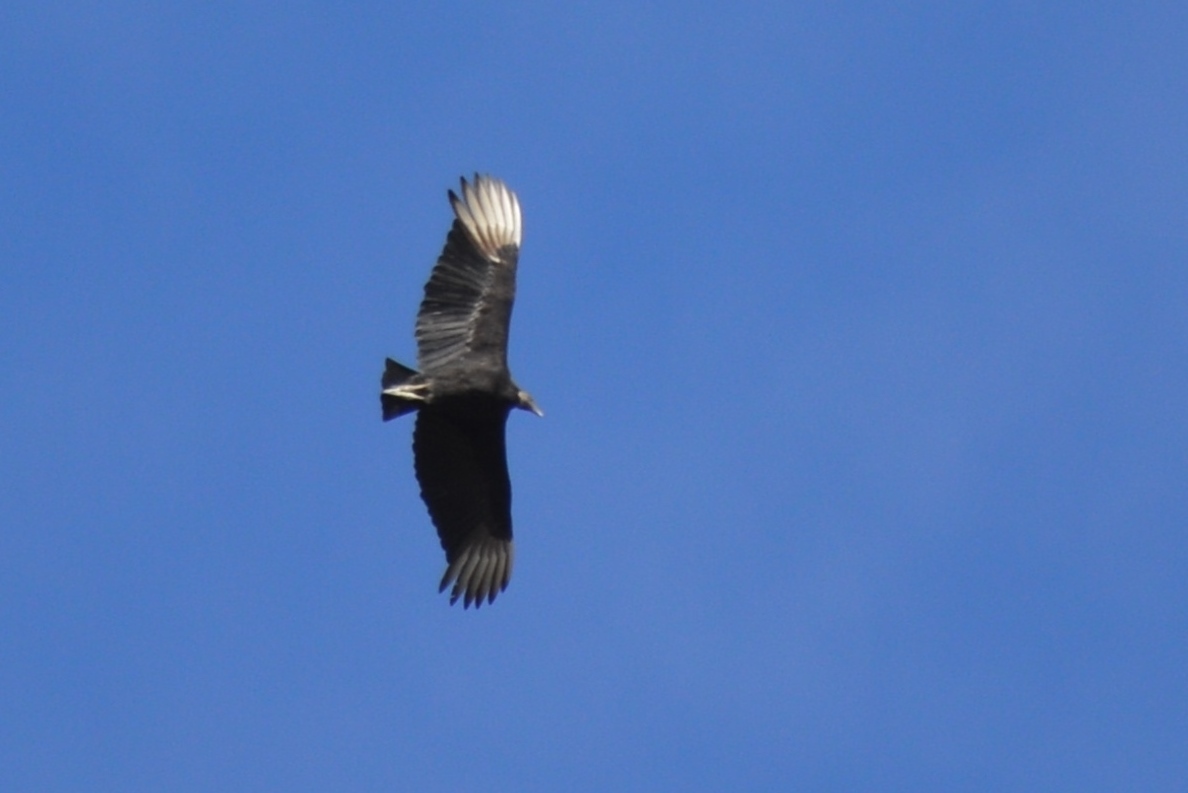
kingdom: Animalia
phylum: Chordata
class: Aves
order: Accipitriformes
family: Cathartidae
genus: Coragyps
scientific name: Coragyps atratus
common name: Black vulture
